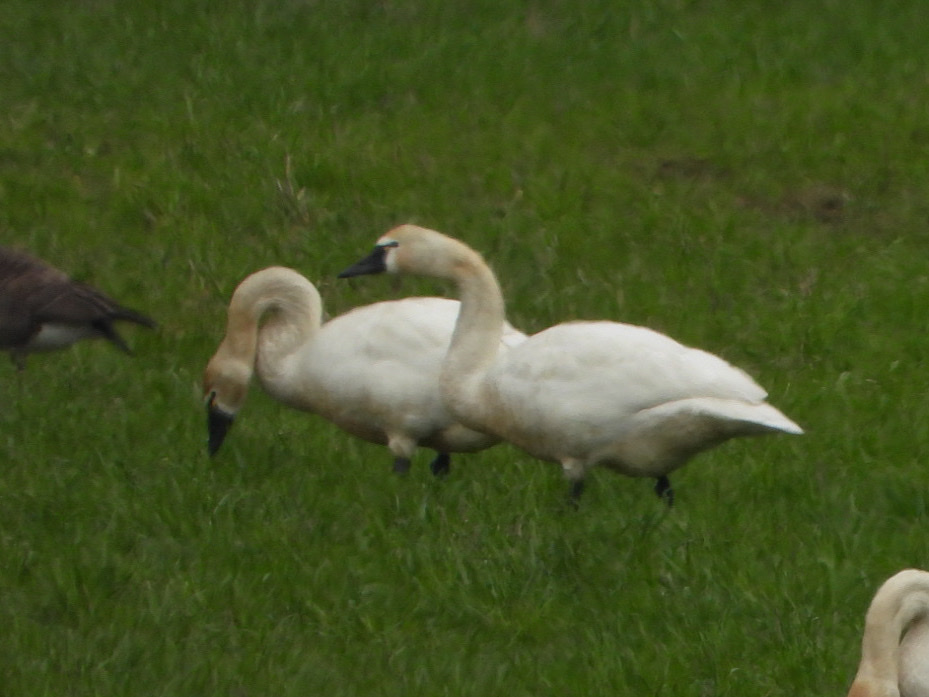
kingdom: Animalia
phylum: Chordata
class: Aves
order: Anseriformes
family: Anatidae
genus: Cygnus
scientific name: Cygnus columbianus
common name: Tundra swan
